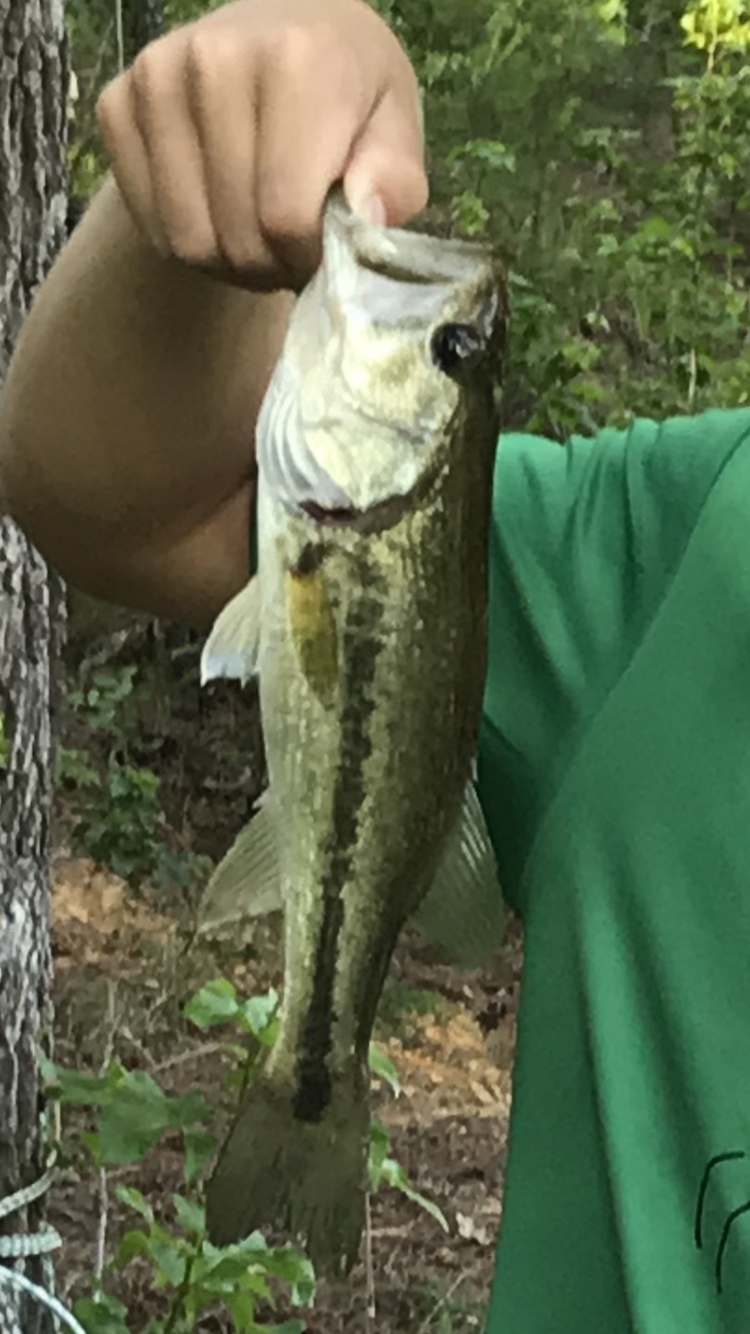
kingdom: Animalia
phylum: Chordata
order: Perciformes
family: Centrarchidae
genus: Micropterus
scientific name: Micropterus
